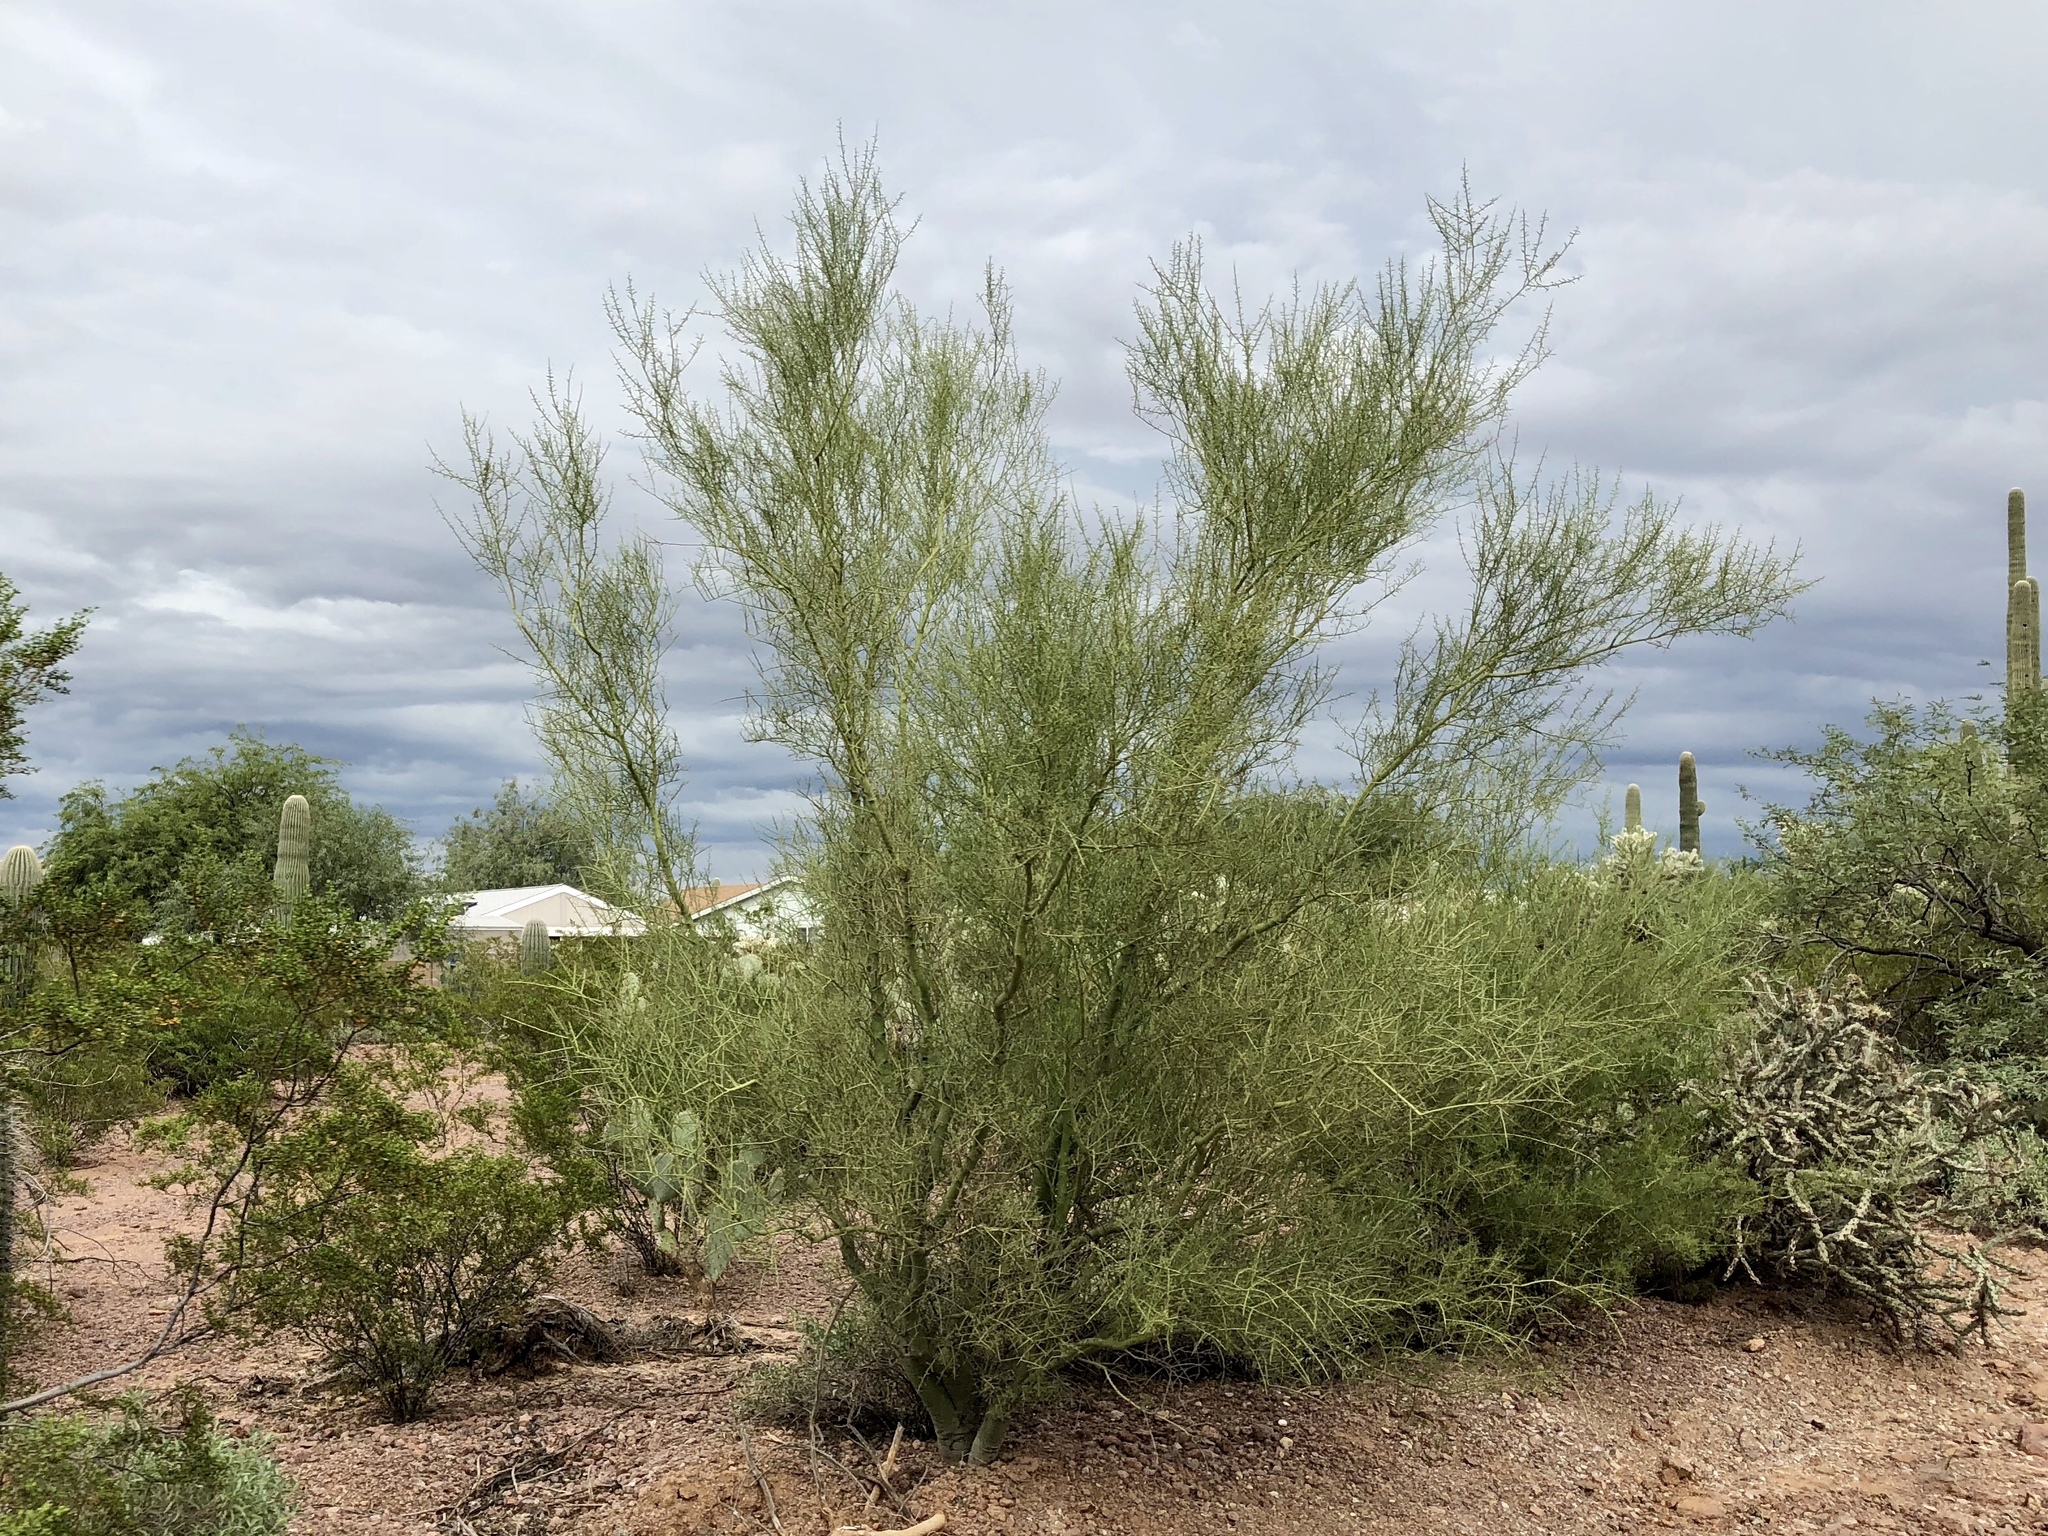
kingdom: Plantae
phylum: Tracheophyta
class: Magnoliopsida
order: Fabales
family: Fabaceae
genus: Parkinsonia
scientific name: Parkinsonia microphylla
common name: Yellow paloverde
